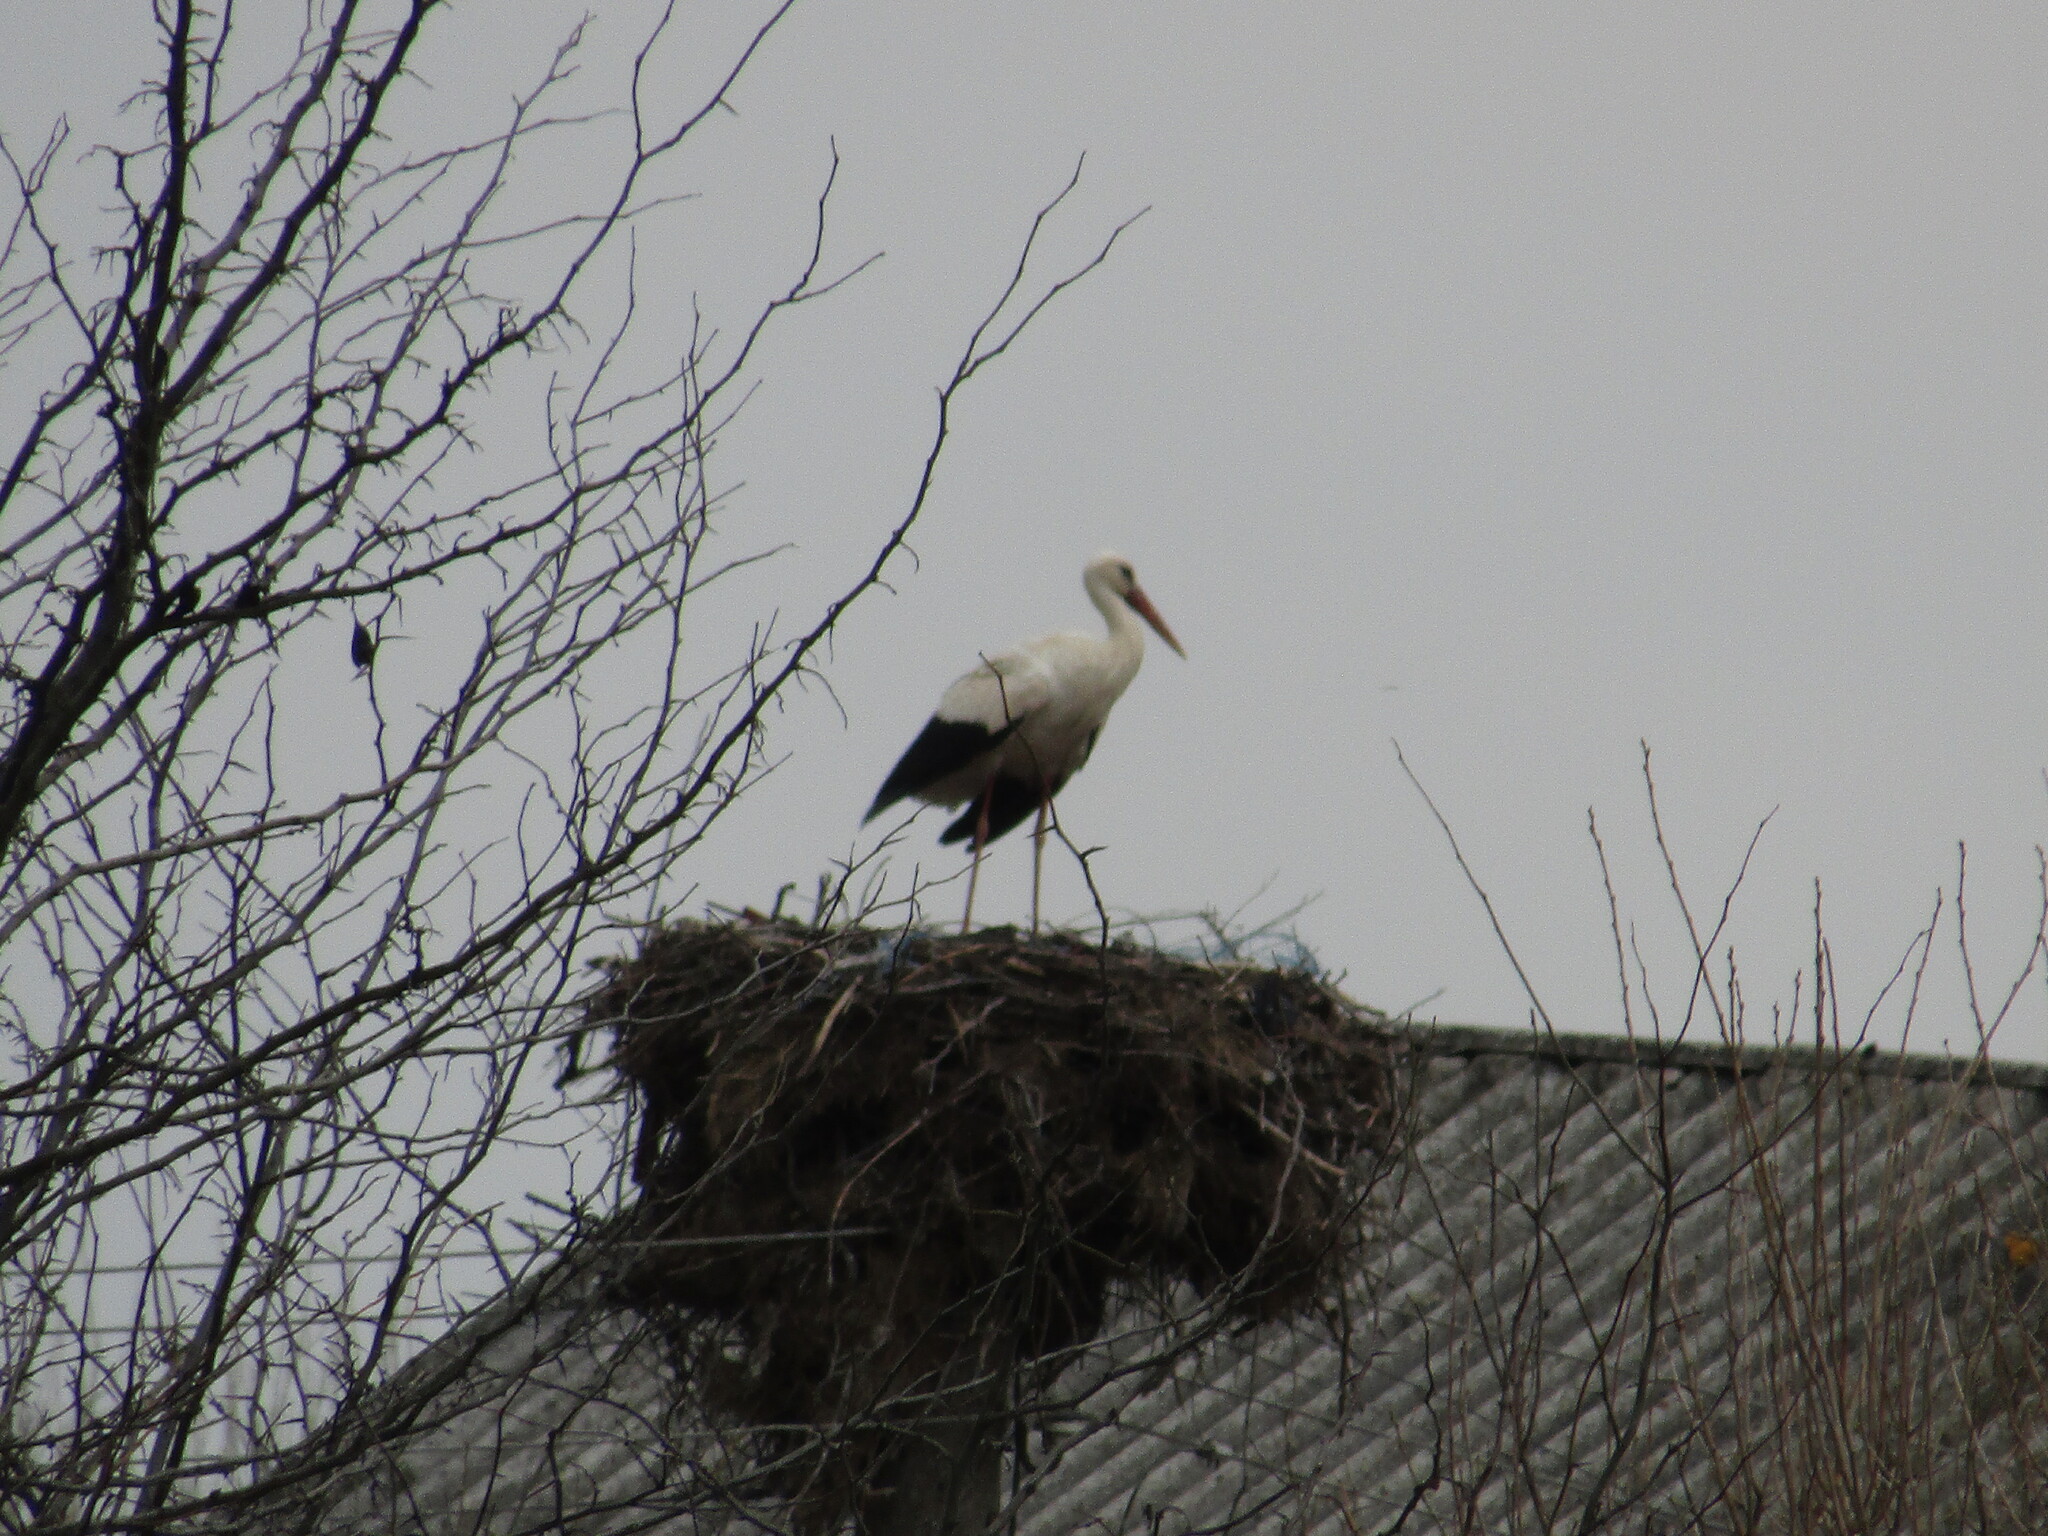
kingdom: Animalia
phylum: Chordata
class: Aves
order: Ciconiiformes
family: Ciconiidae
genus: Ciconia
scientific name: Ciconia ciconia
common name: White stork
